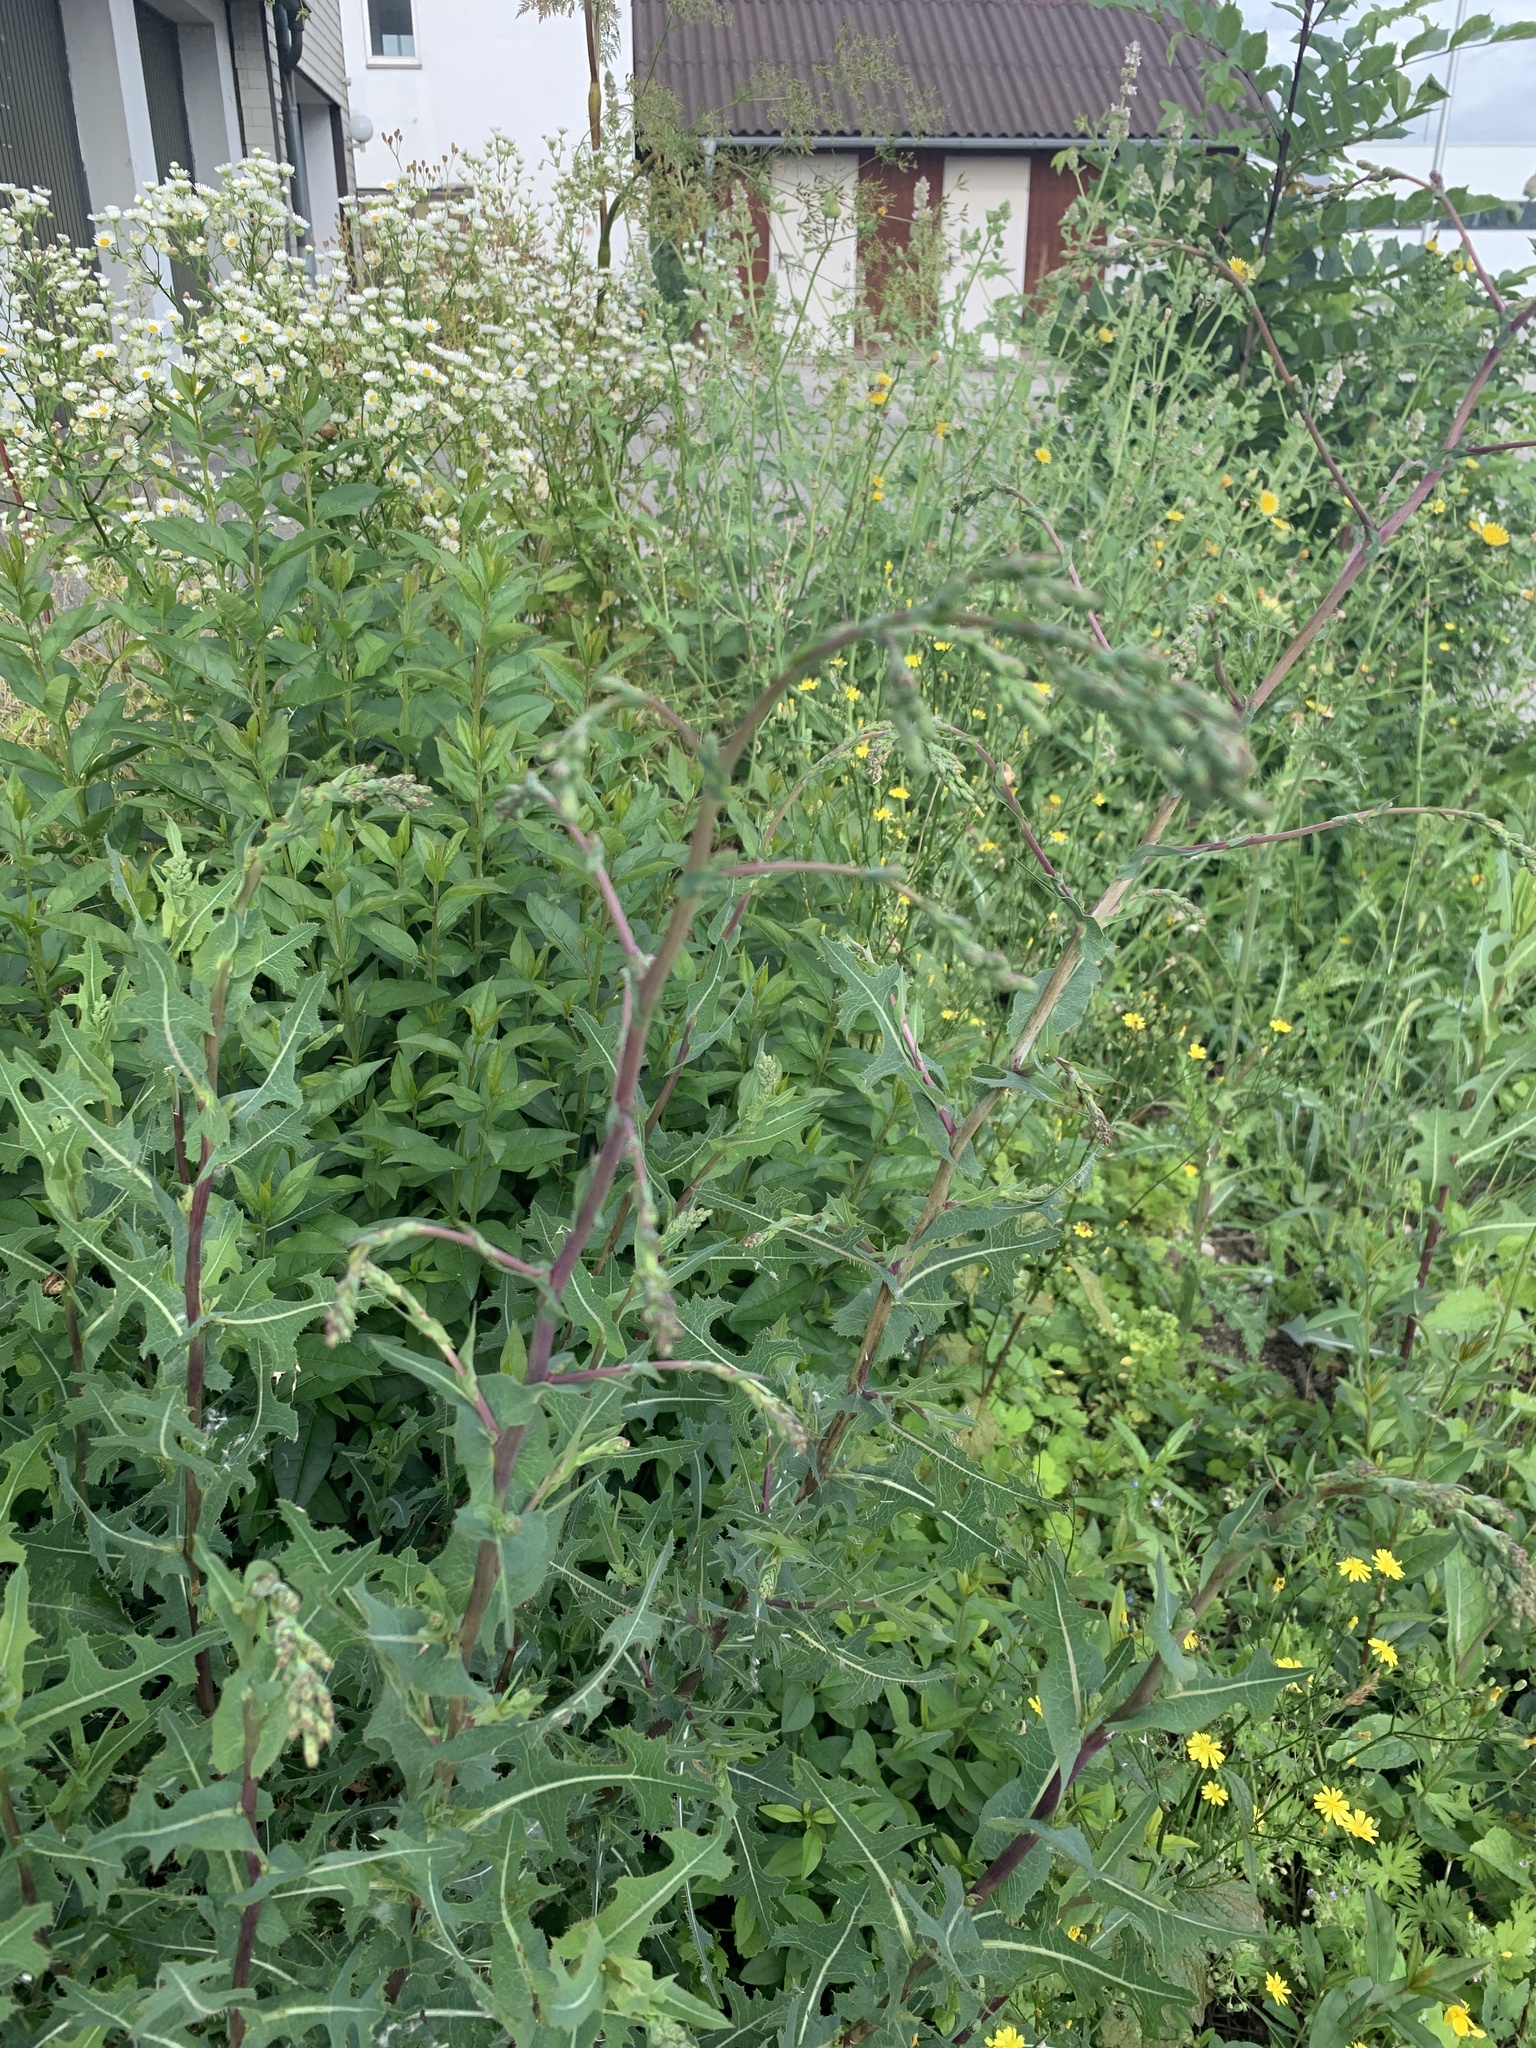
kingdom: Plantae
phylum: Tracheophyta
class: Magnoliopsida
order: Asterales
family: Asteraceae
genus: Lactuca
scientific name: Lactuca serriola
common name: Prickly lettuce
